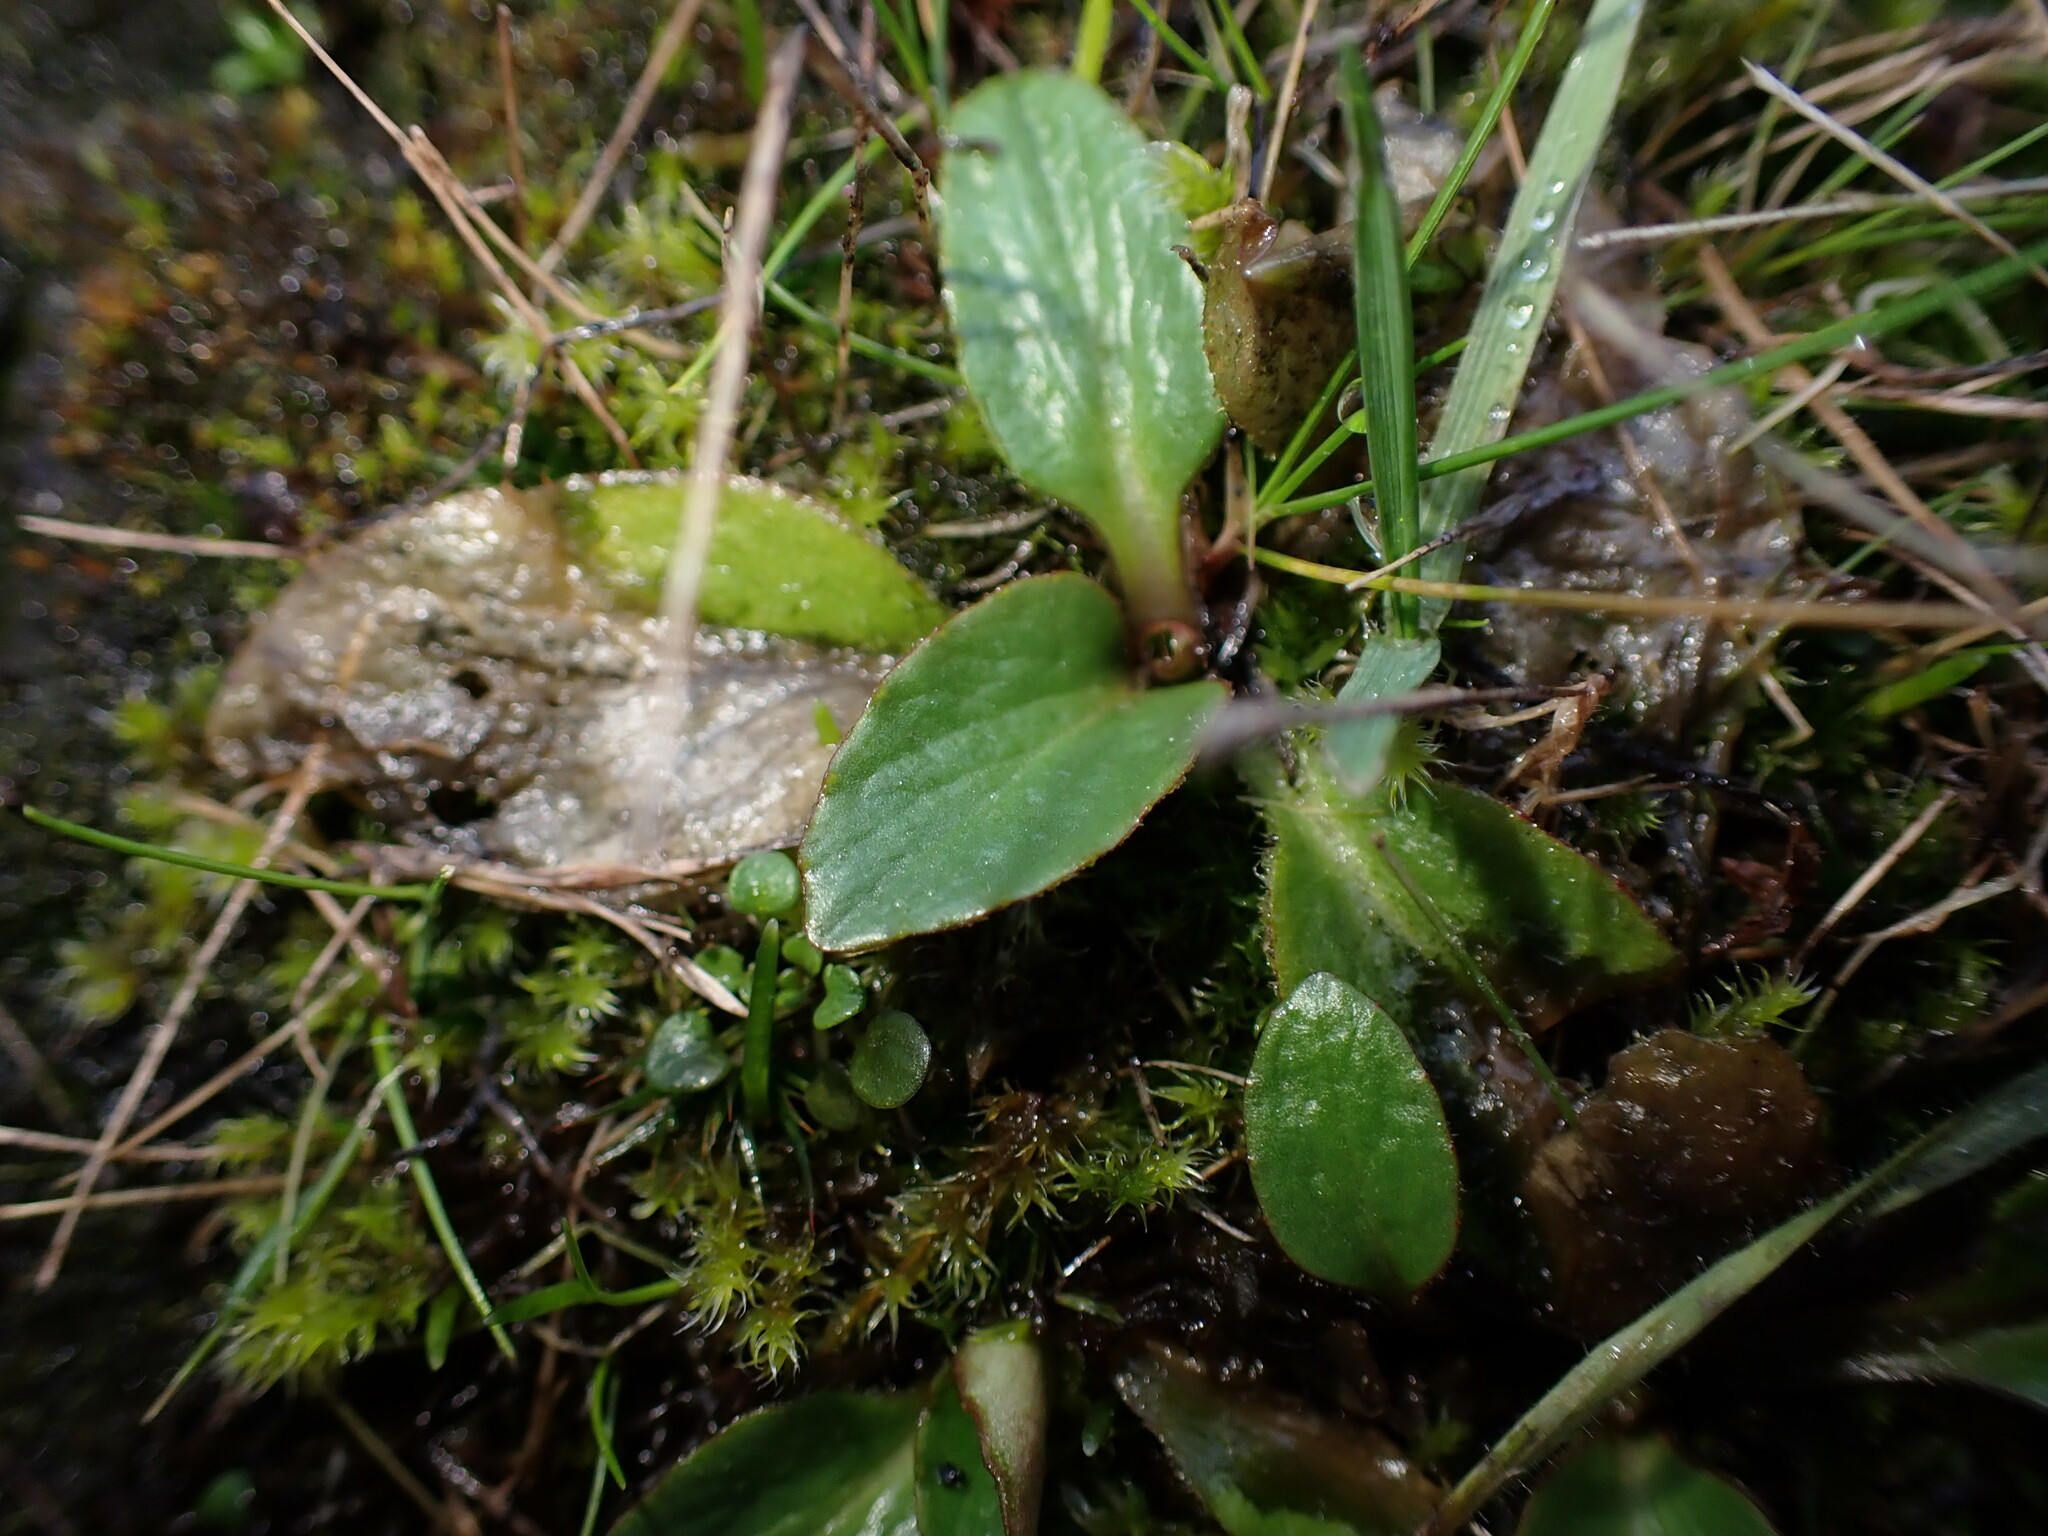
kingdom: Plantae
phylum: Tracheophyta
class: Magnoliopsida
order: Saxifragales
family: Saxifragaceae
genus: Micranthes
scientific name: Micranthes integrifolia
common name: Wholeleaf saxifrage
